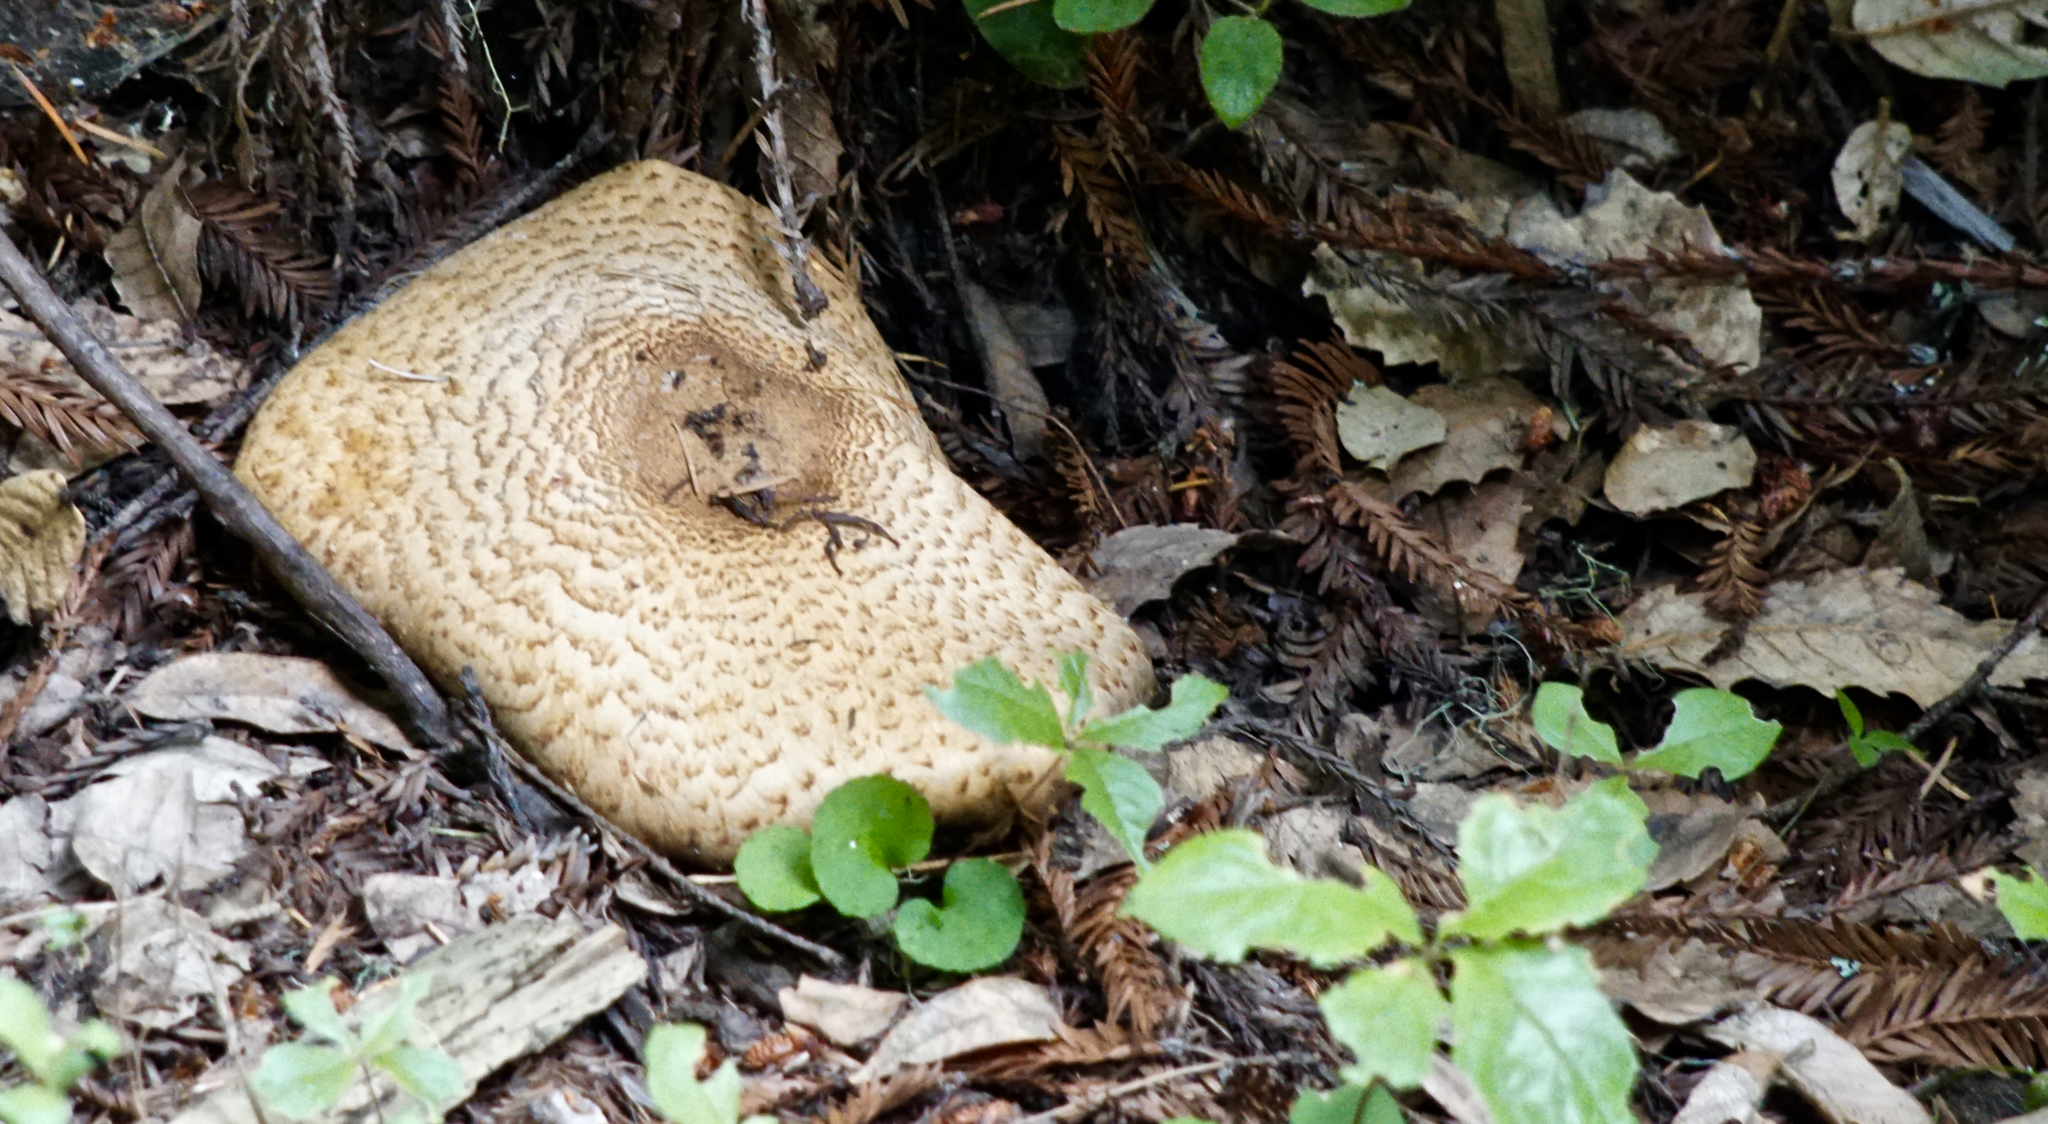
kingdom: Fungi
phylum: Basidiomycota
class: Agaricomycetes
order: Agaricales
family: Agaricaceae
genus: Agaricus
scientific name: Agaricus augustus
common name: Prince
